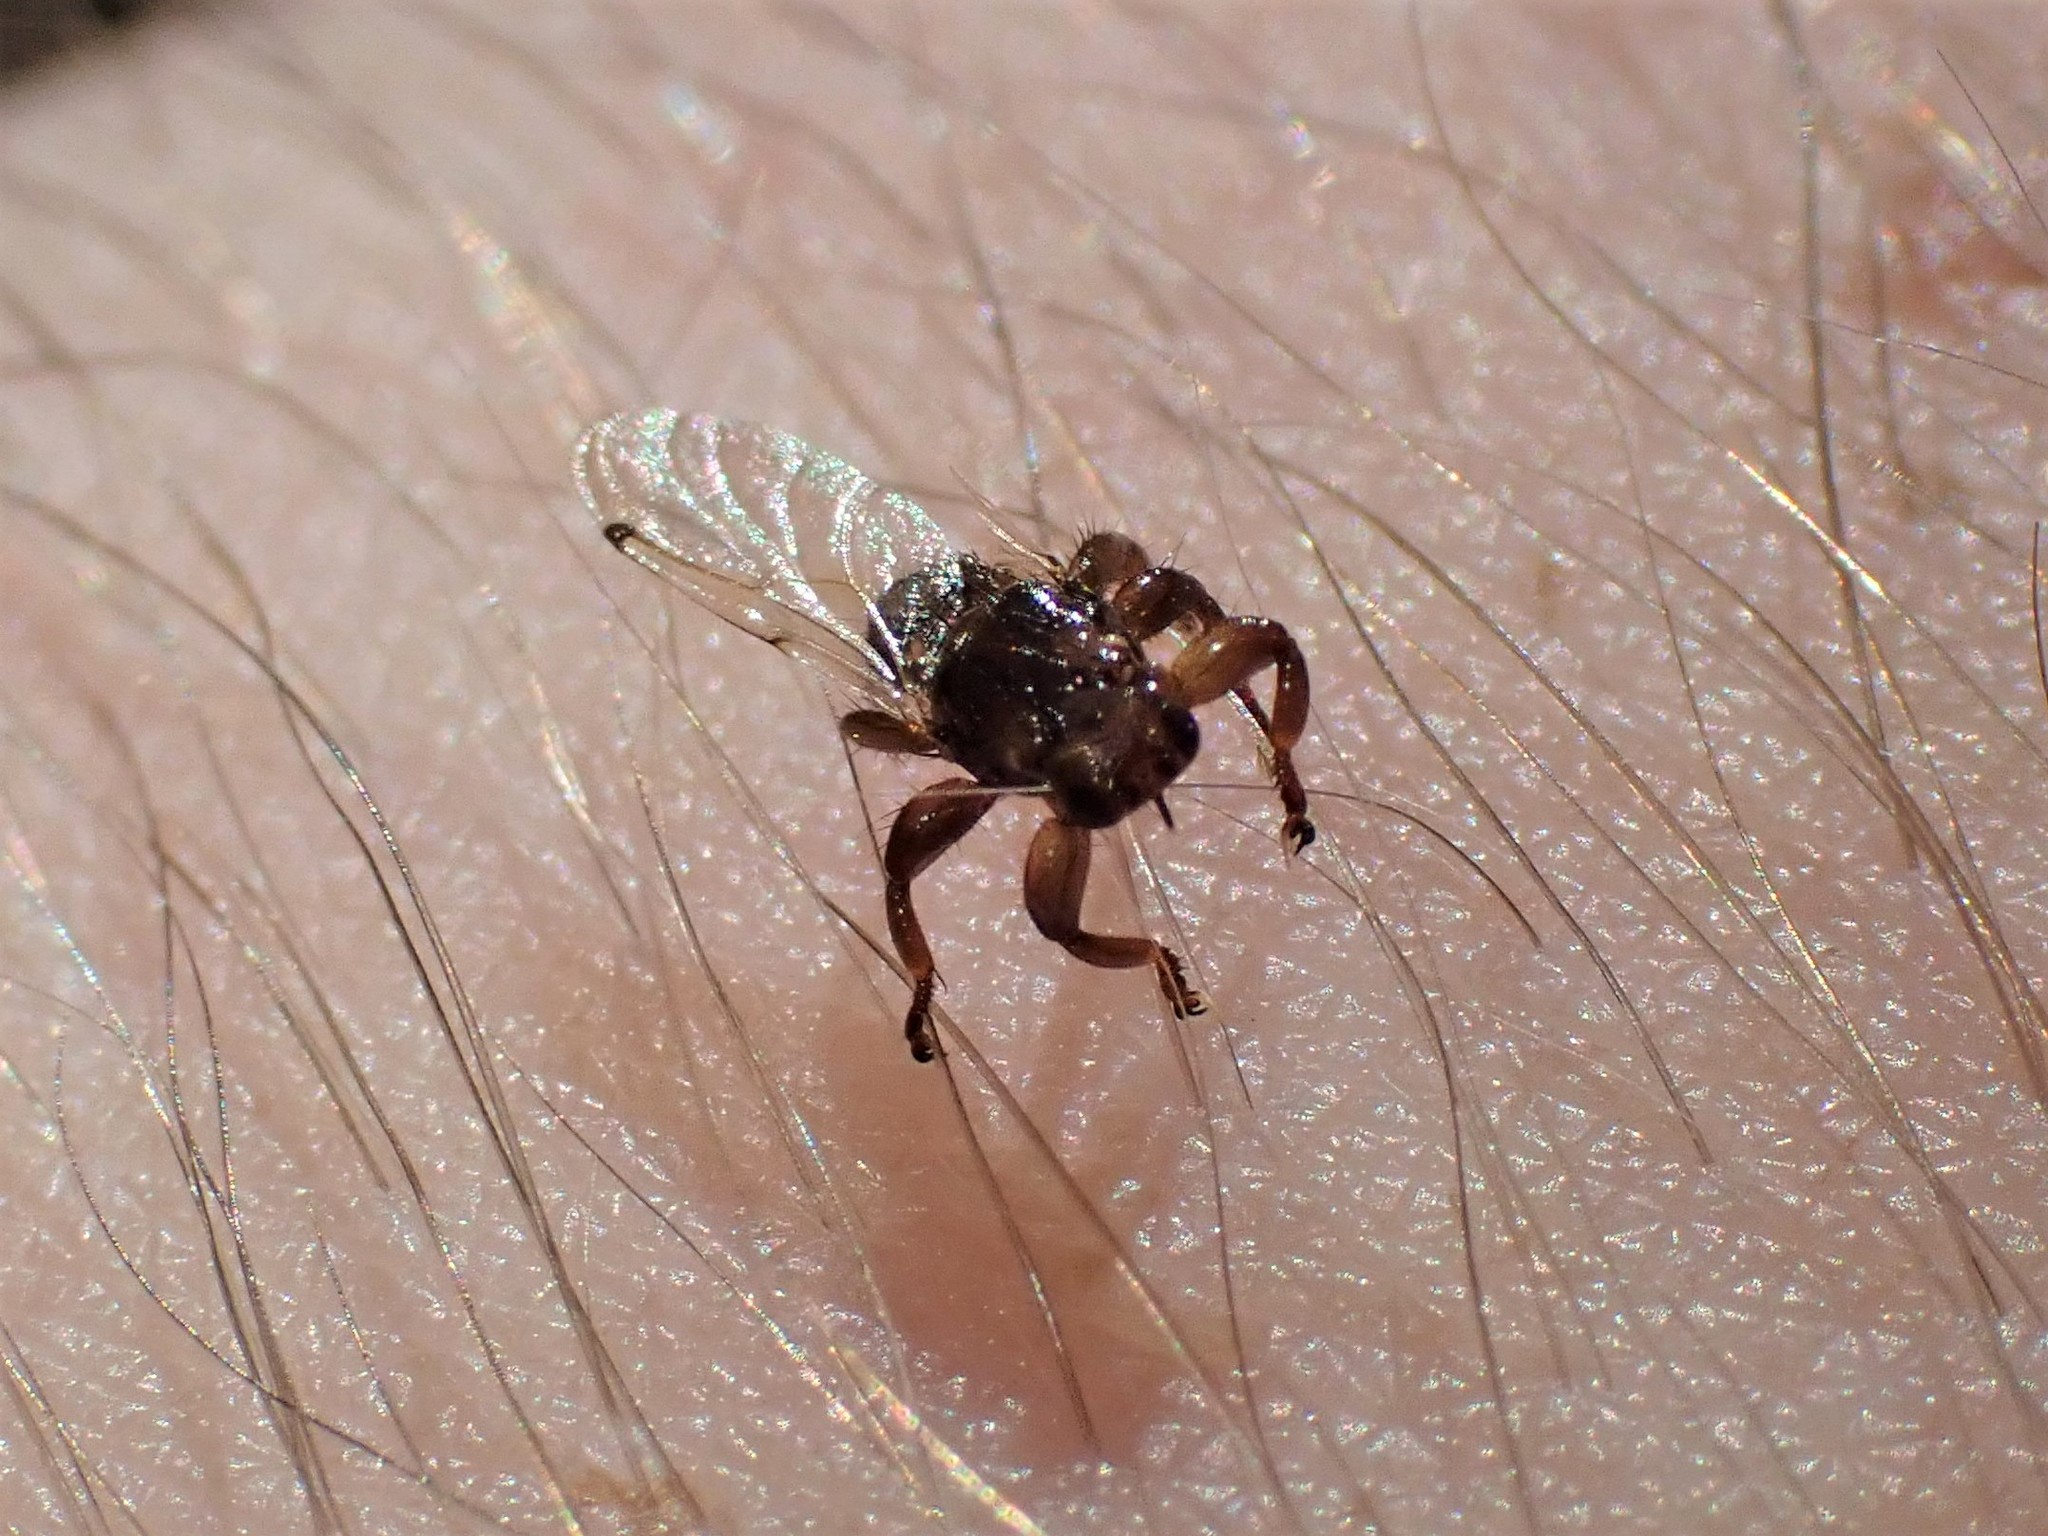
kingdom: Animalia
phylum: Arthropoda
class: Insecta
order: Diptera
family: Hippoboscidae
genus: Lipoptena
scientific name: Lipoptena depressa
